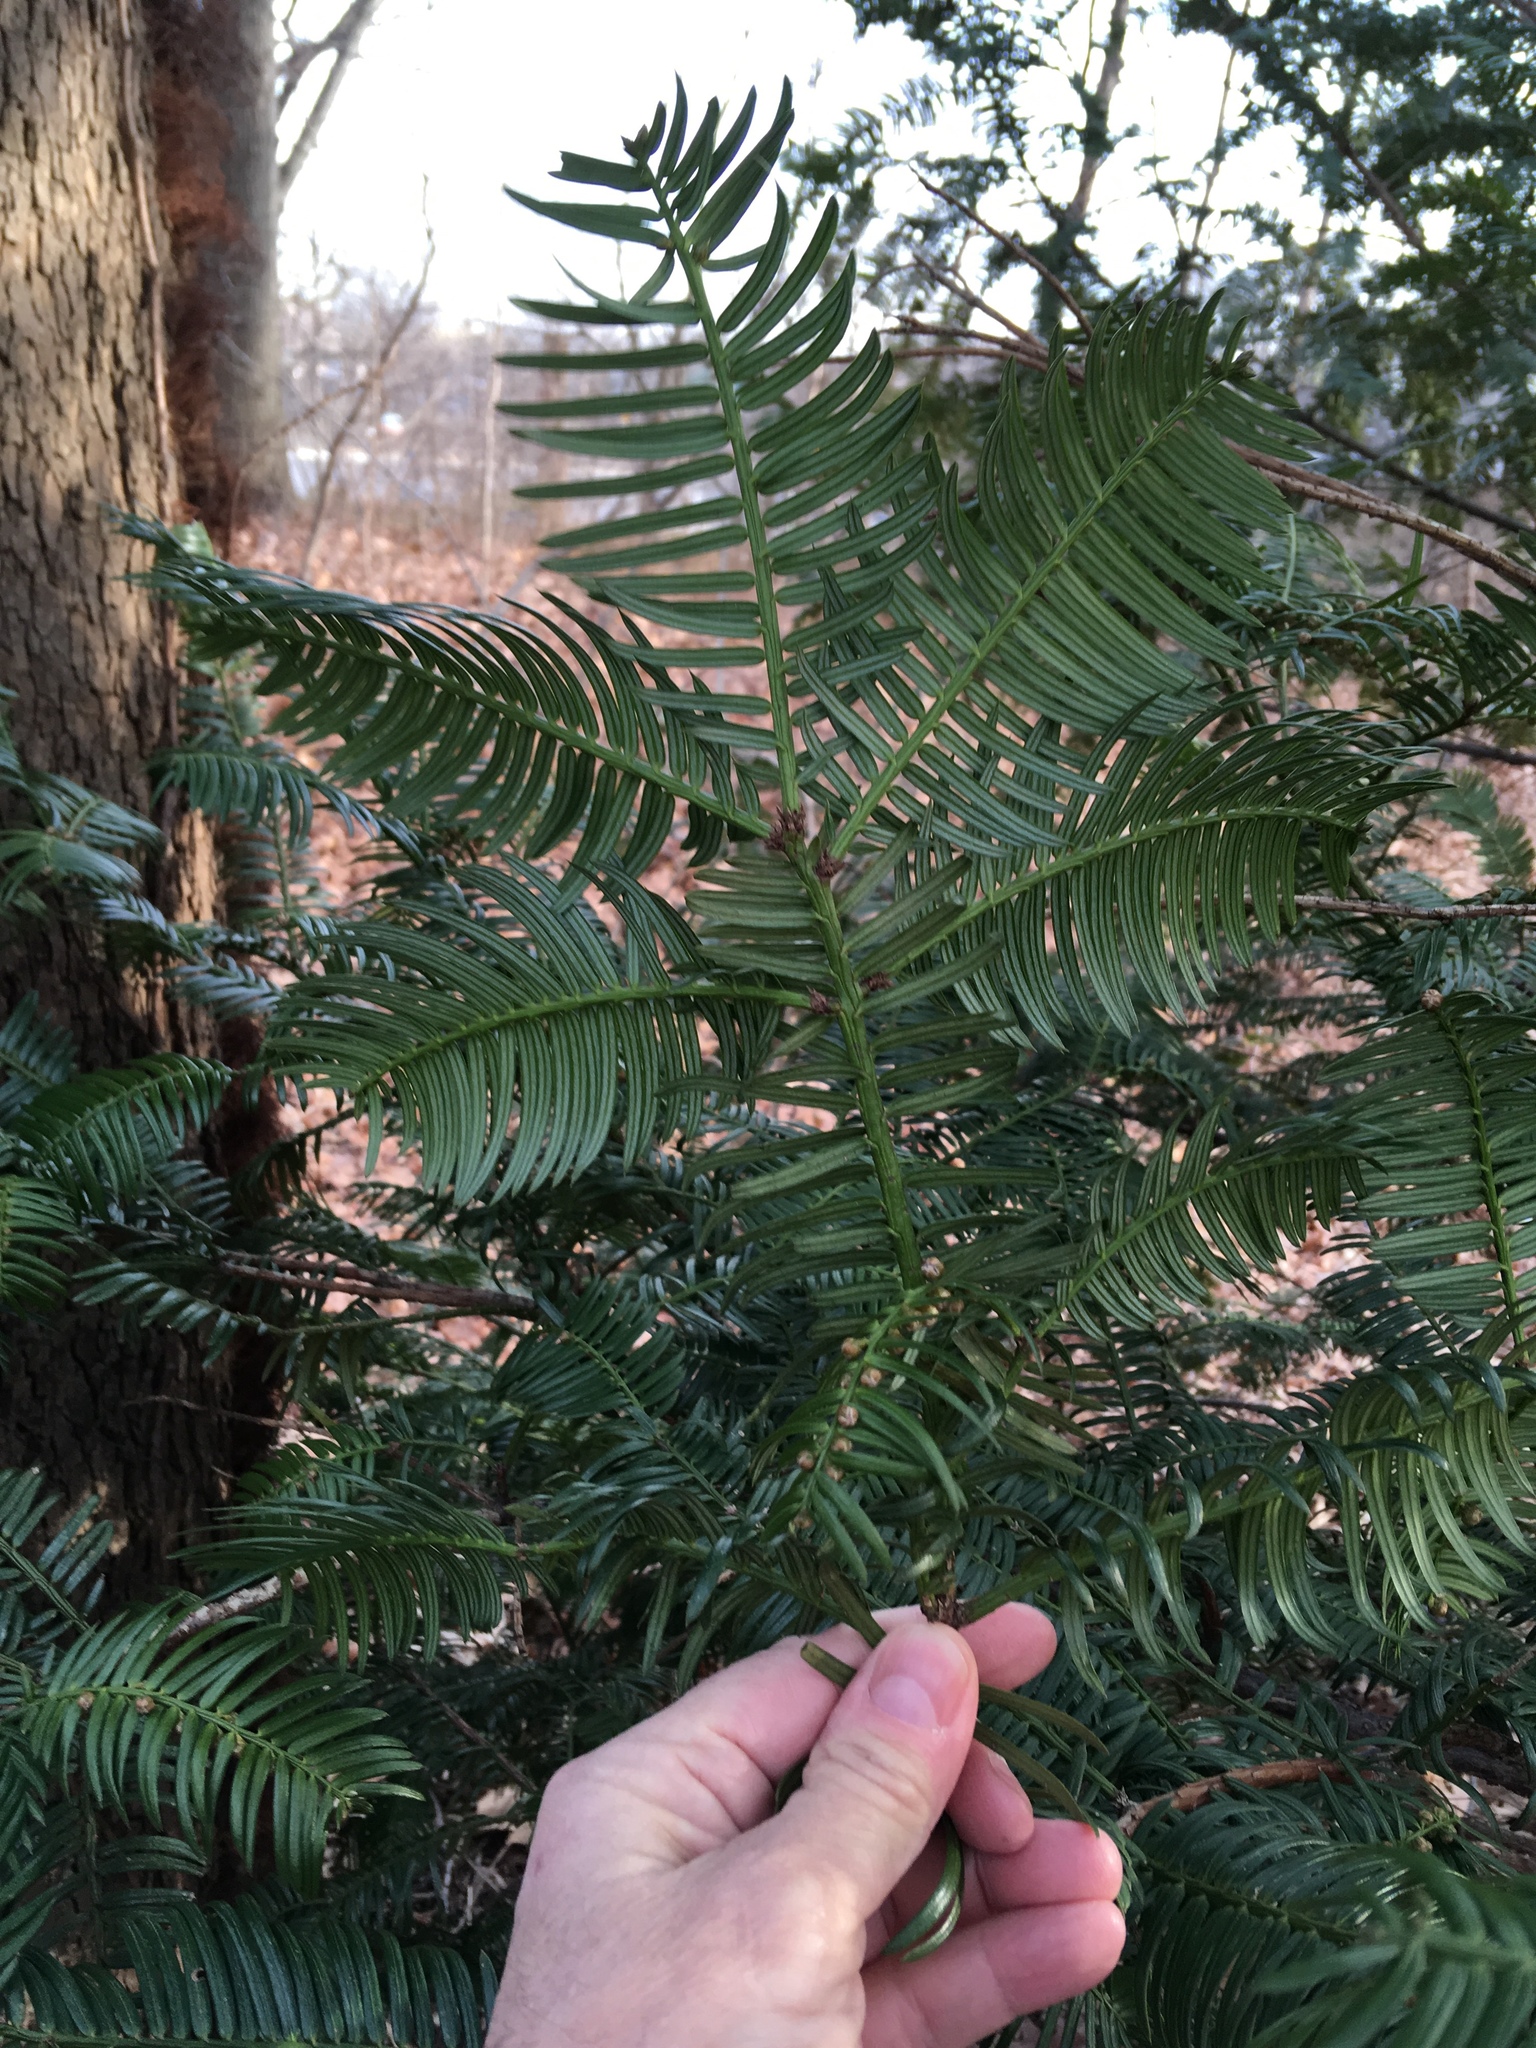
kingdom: Plantae
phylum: Tracheophyta
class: Pinopsida
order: Pinales
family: Cephalotaxaceae
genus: Cephalotaxus
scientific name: Cephalotaxus harringtonia
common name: Japanese plum-yew
